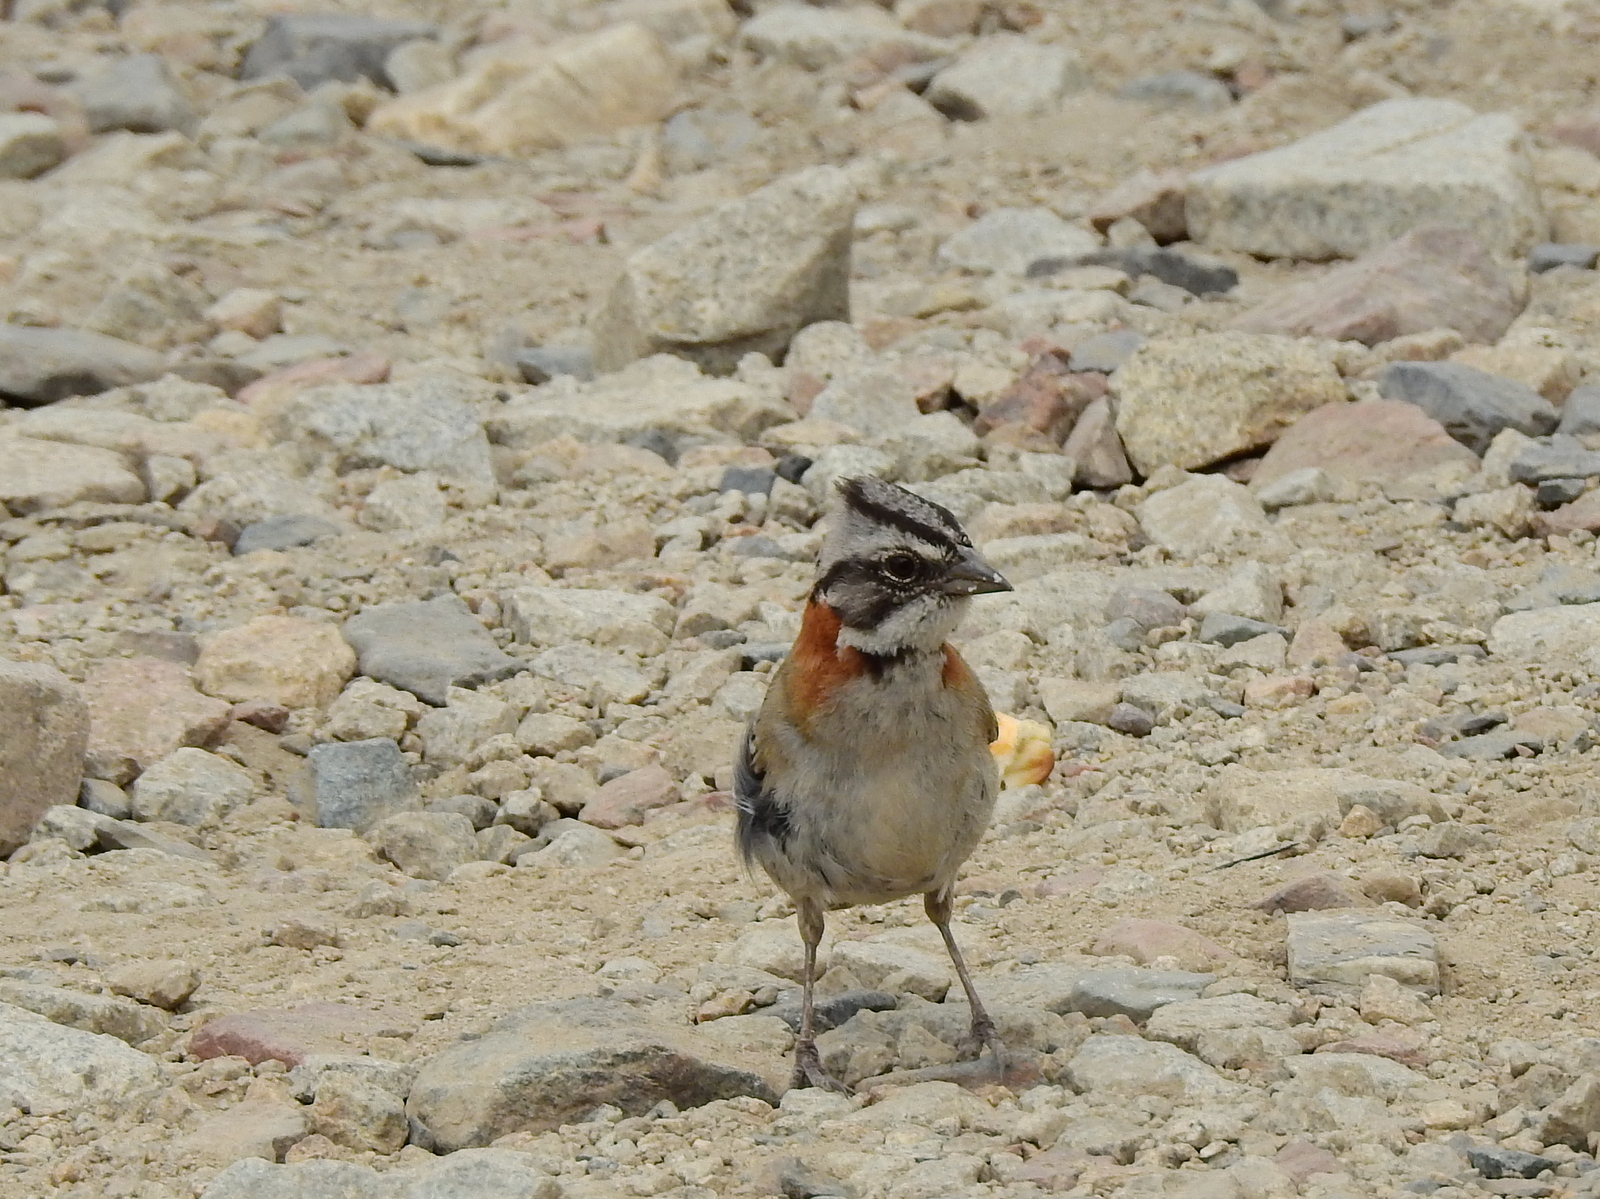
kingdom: Animalia
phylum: Chordata
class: Aves
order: Passeriformes
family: Passerellidae
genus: Zonotrichia
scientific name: Zonotrichia capensis
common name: Rufous-collared sparrow
